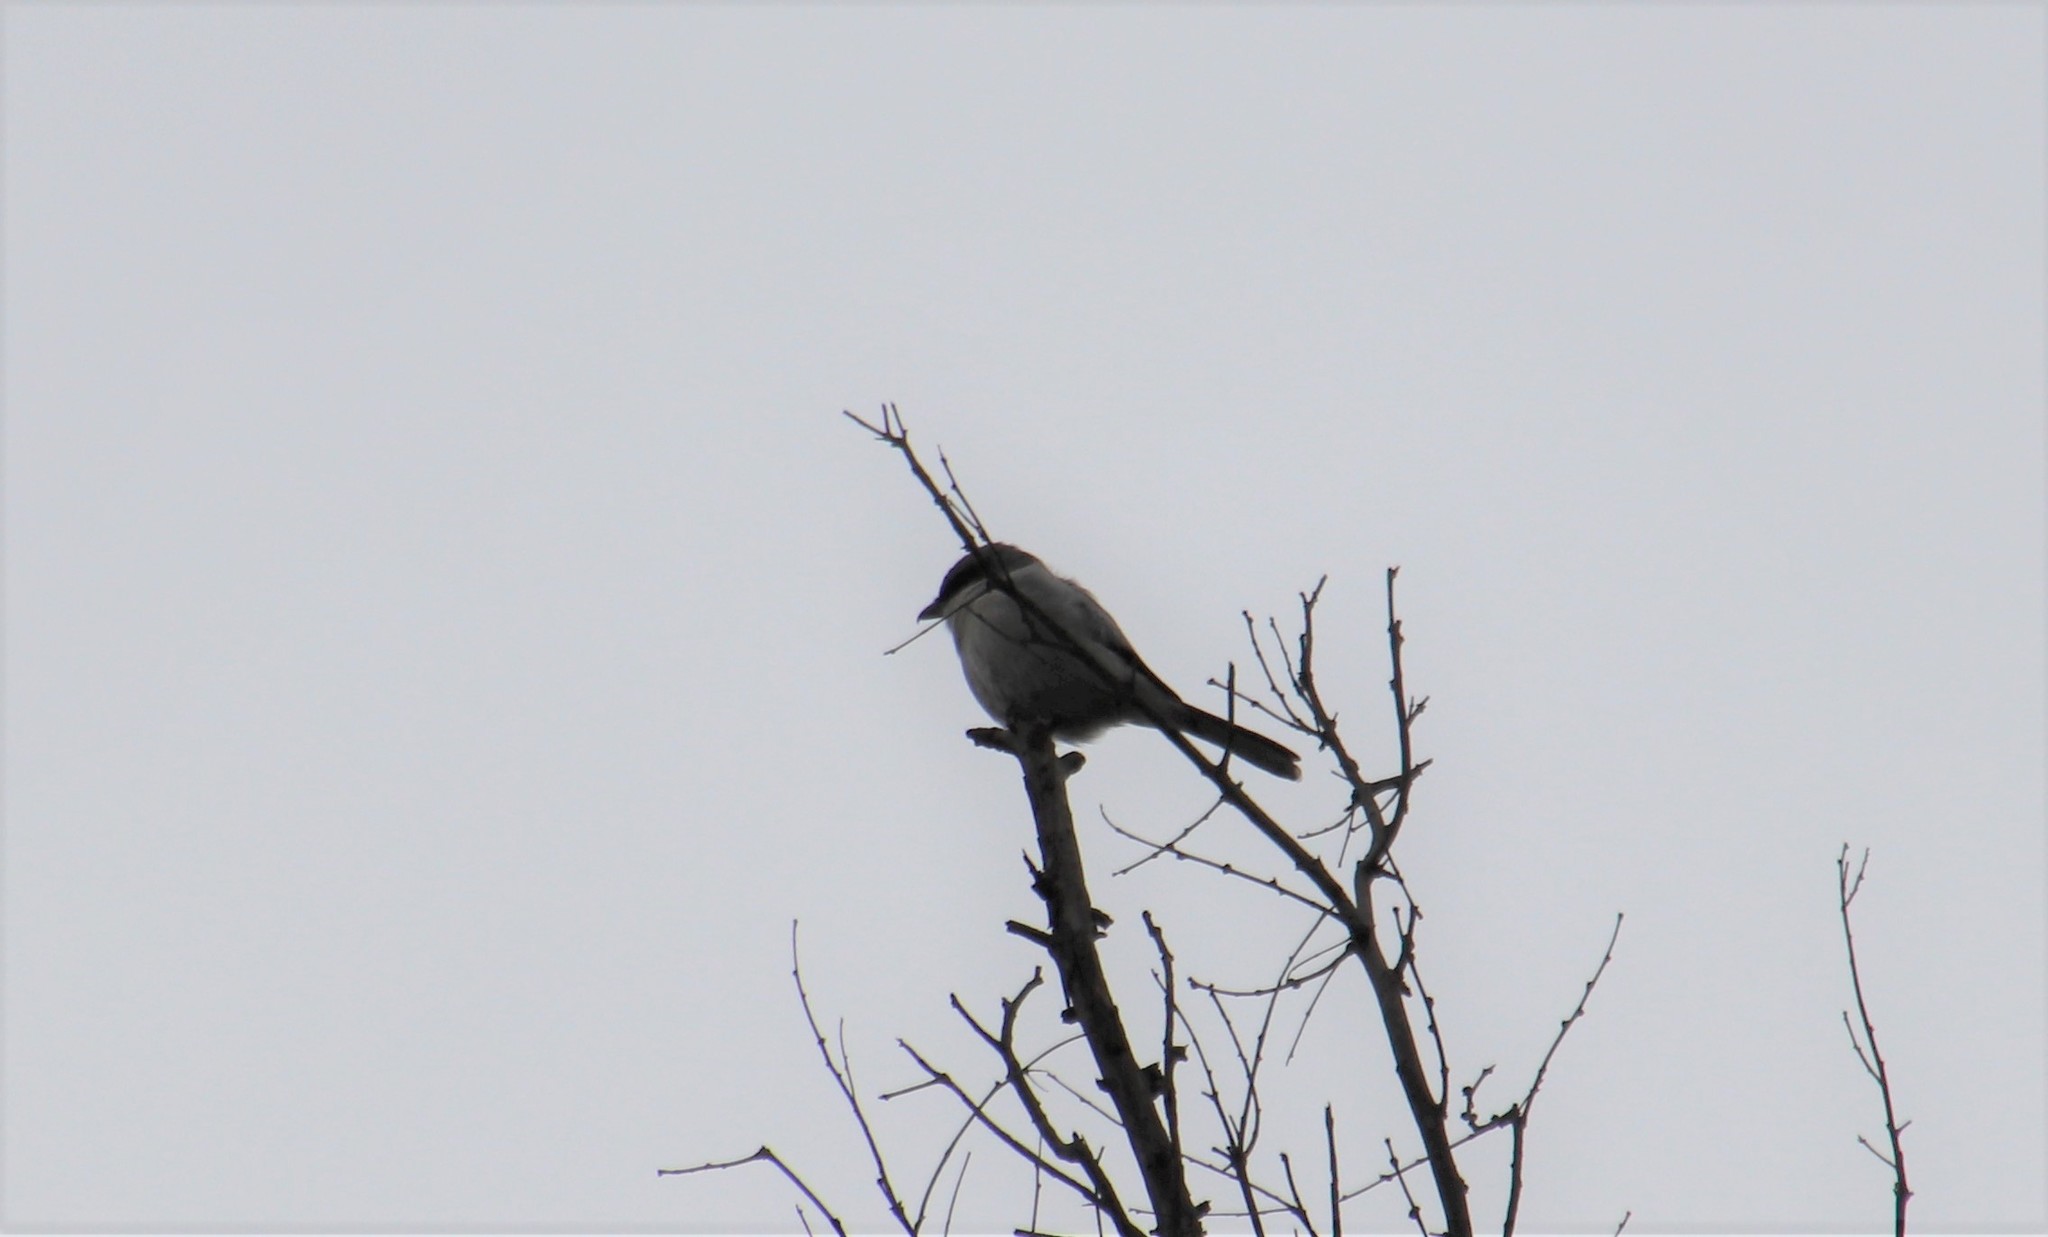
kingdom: Animalia
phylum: Chordata
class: Aves
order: Passeriformes
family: Laniidae
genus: Lanius
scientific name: Lanius ludovicianus
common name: Loggerhead shrike
